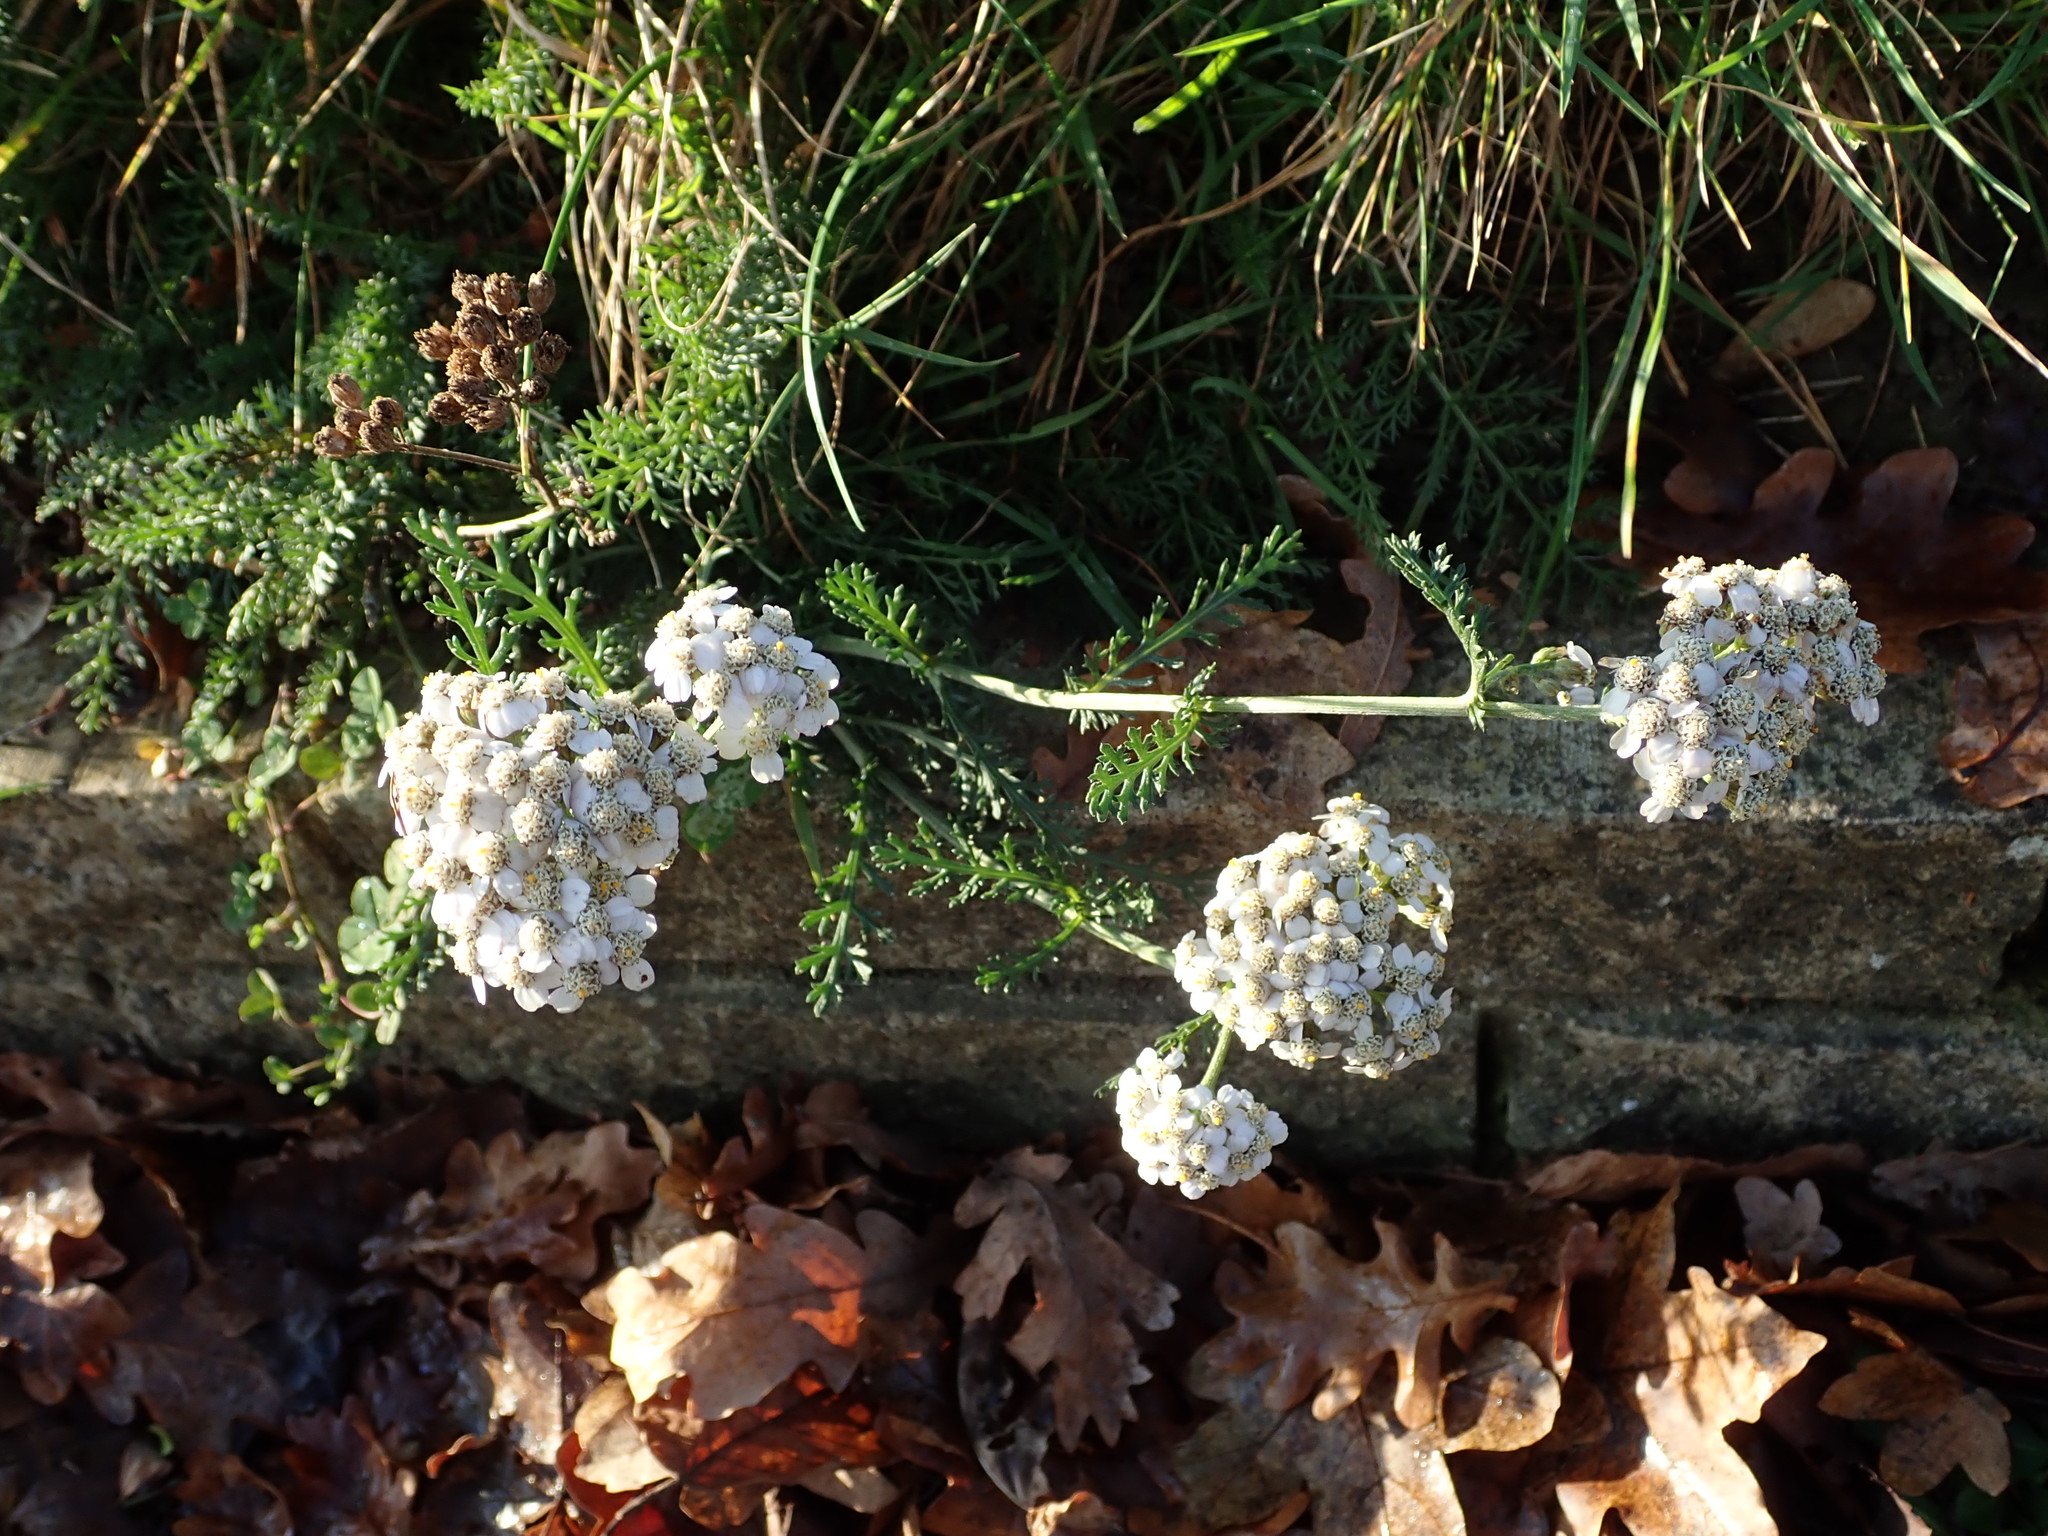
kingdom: Plantae
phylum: Tracheophyta
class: Magnoliopsida
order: Asterales
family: Asteraceae
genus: Achillea
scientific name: Achillea millefolium
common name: Yarrow
